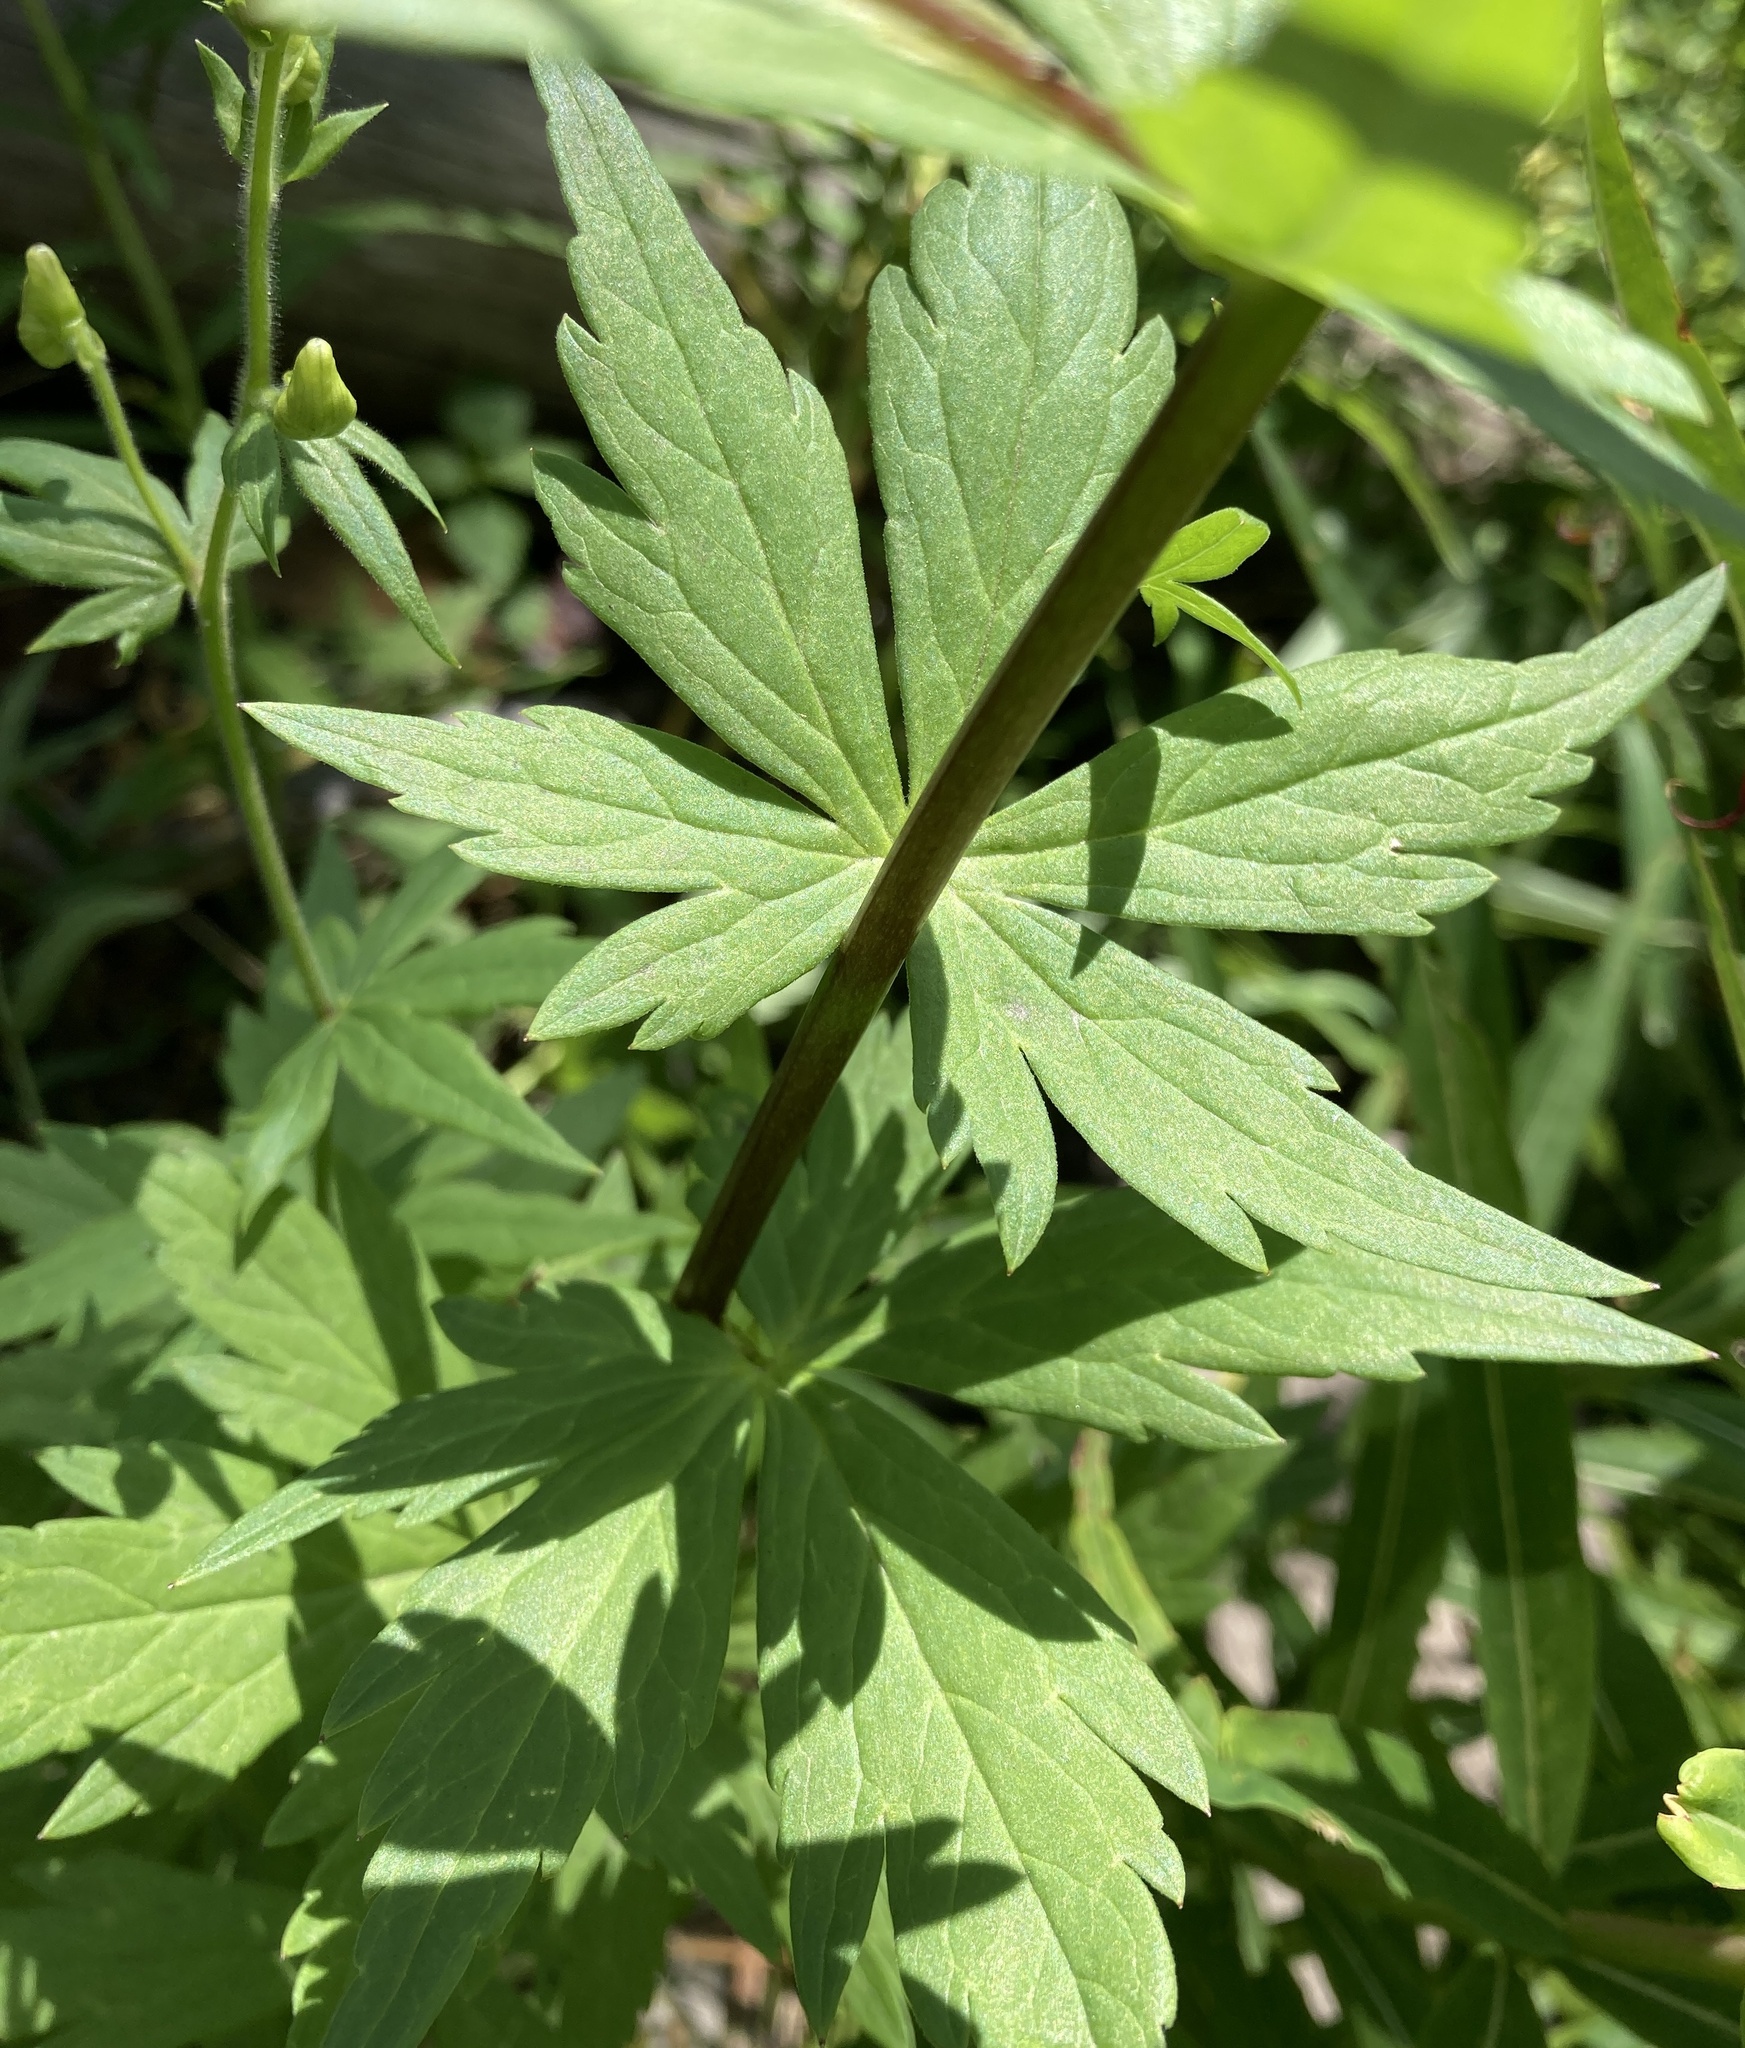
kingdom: Plantae
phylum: Tracheophyta
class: Magnoliopsida
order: Ranunculales
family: Ranunculaceae
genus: Aconitum
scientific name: Aconitum columbianum
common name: Columbia aconite
